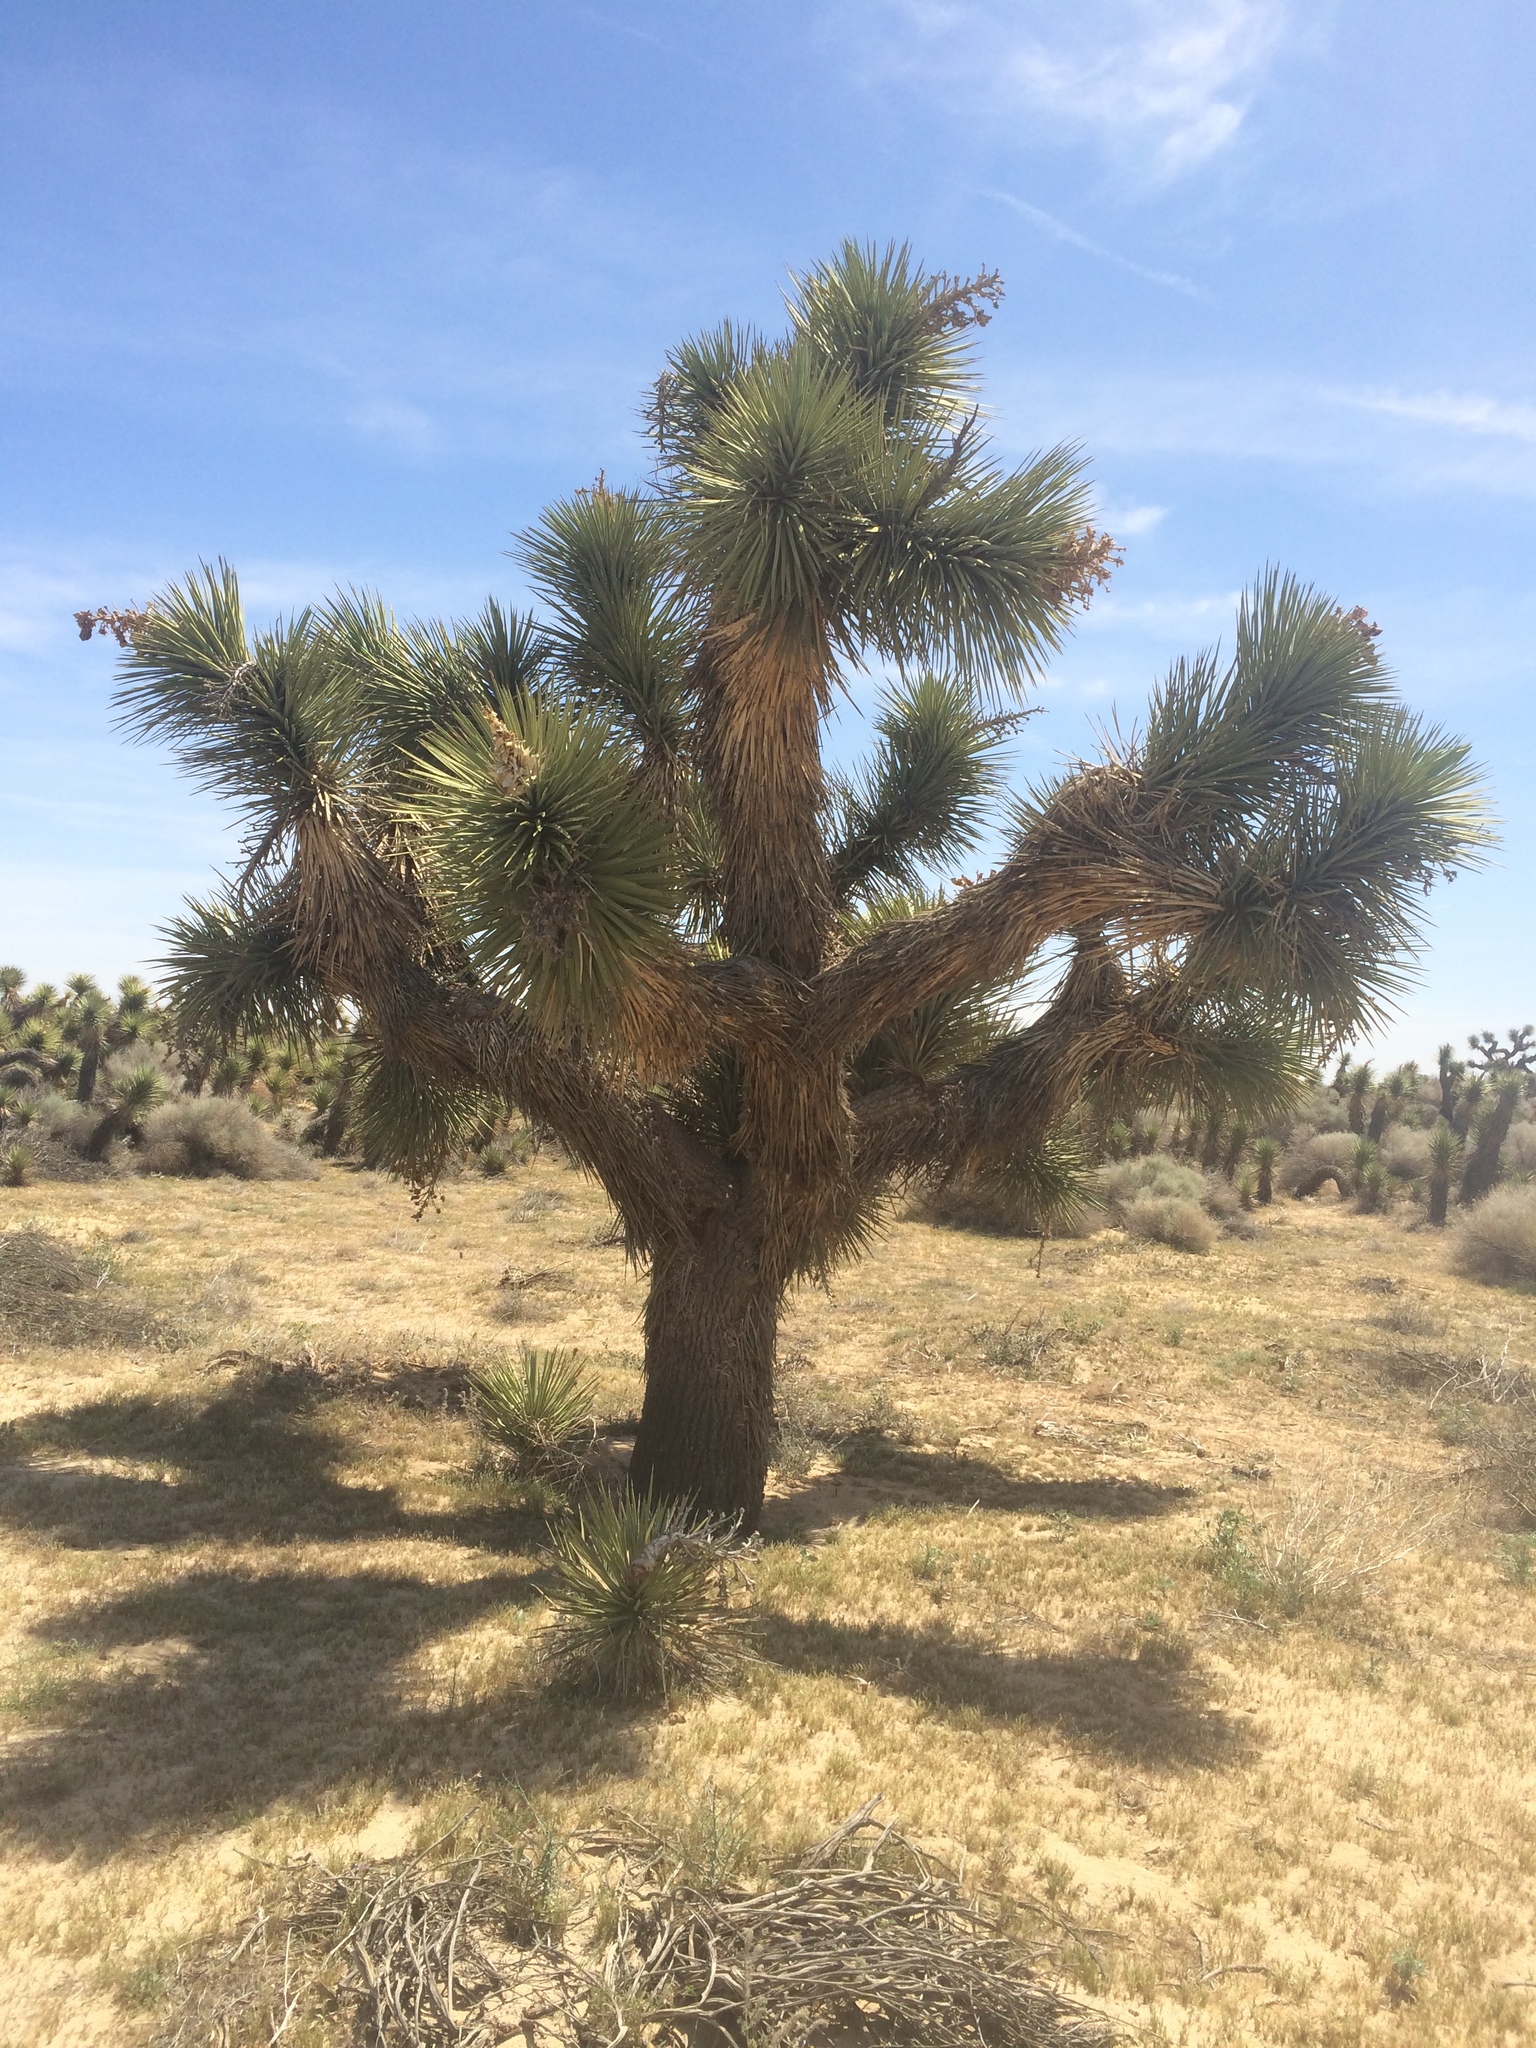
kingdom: Plantae
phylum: Tracheophyta
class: Liliopsida
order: Asparagales
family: Asparagaceae
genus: Yucca
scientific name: Yucca brevifolia
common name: Joshua tree
